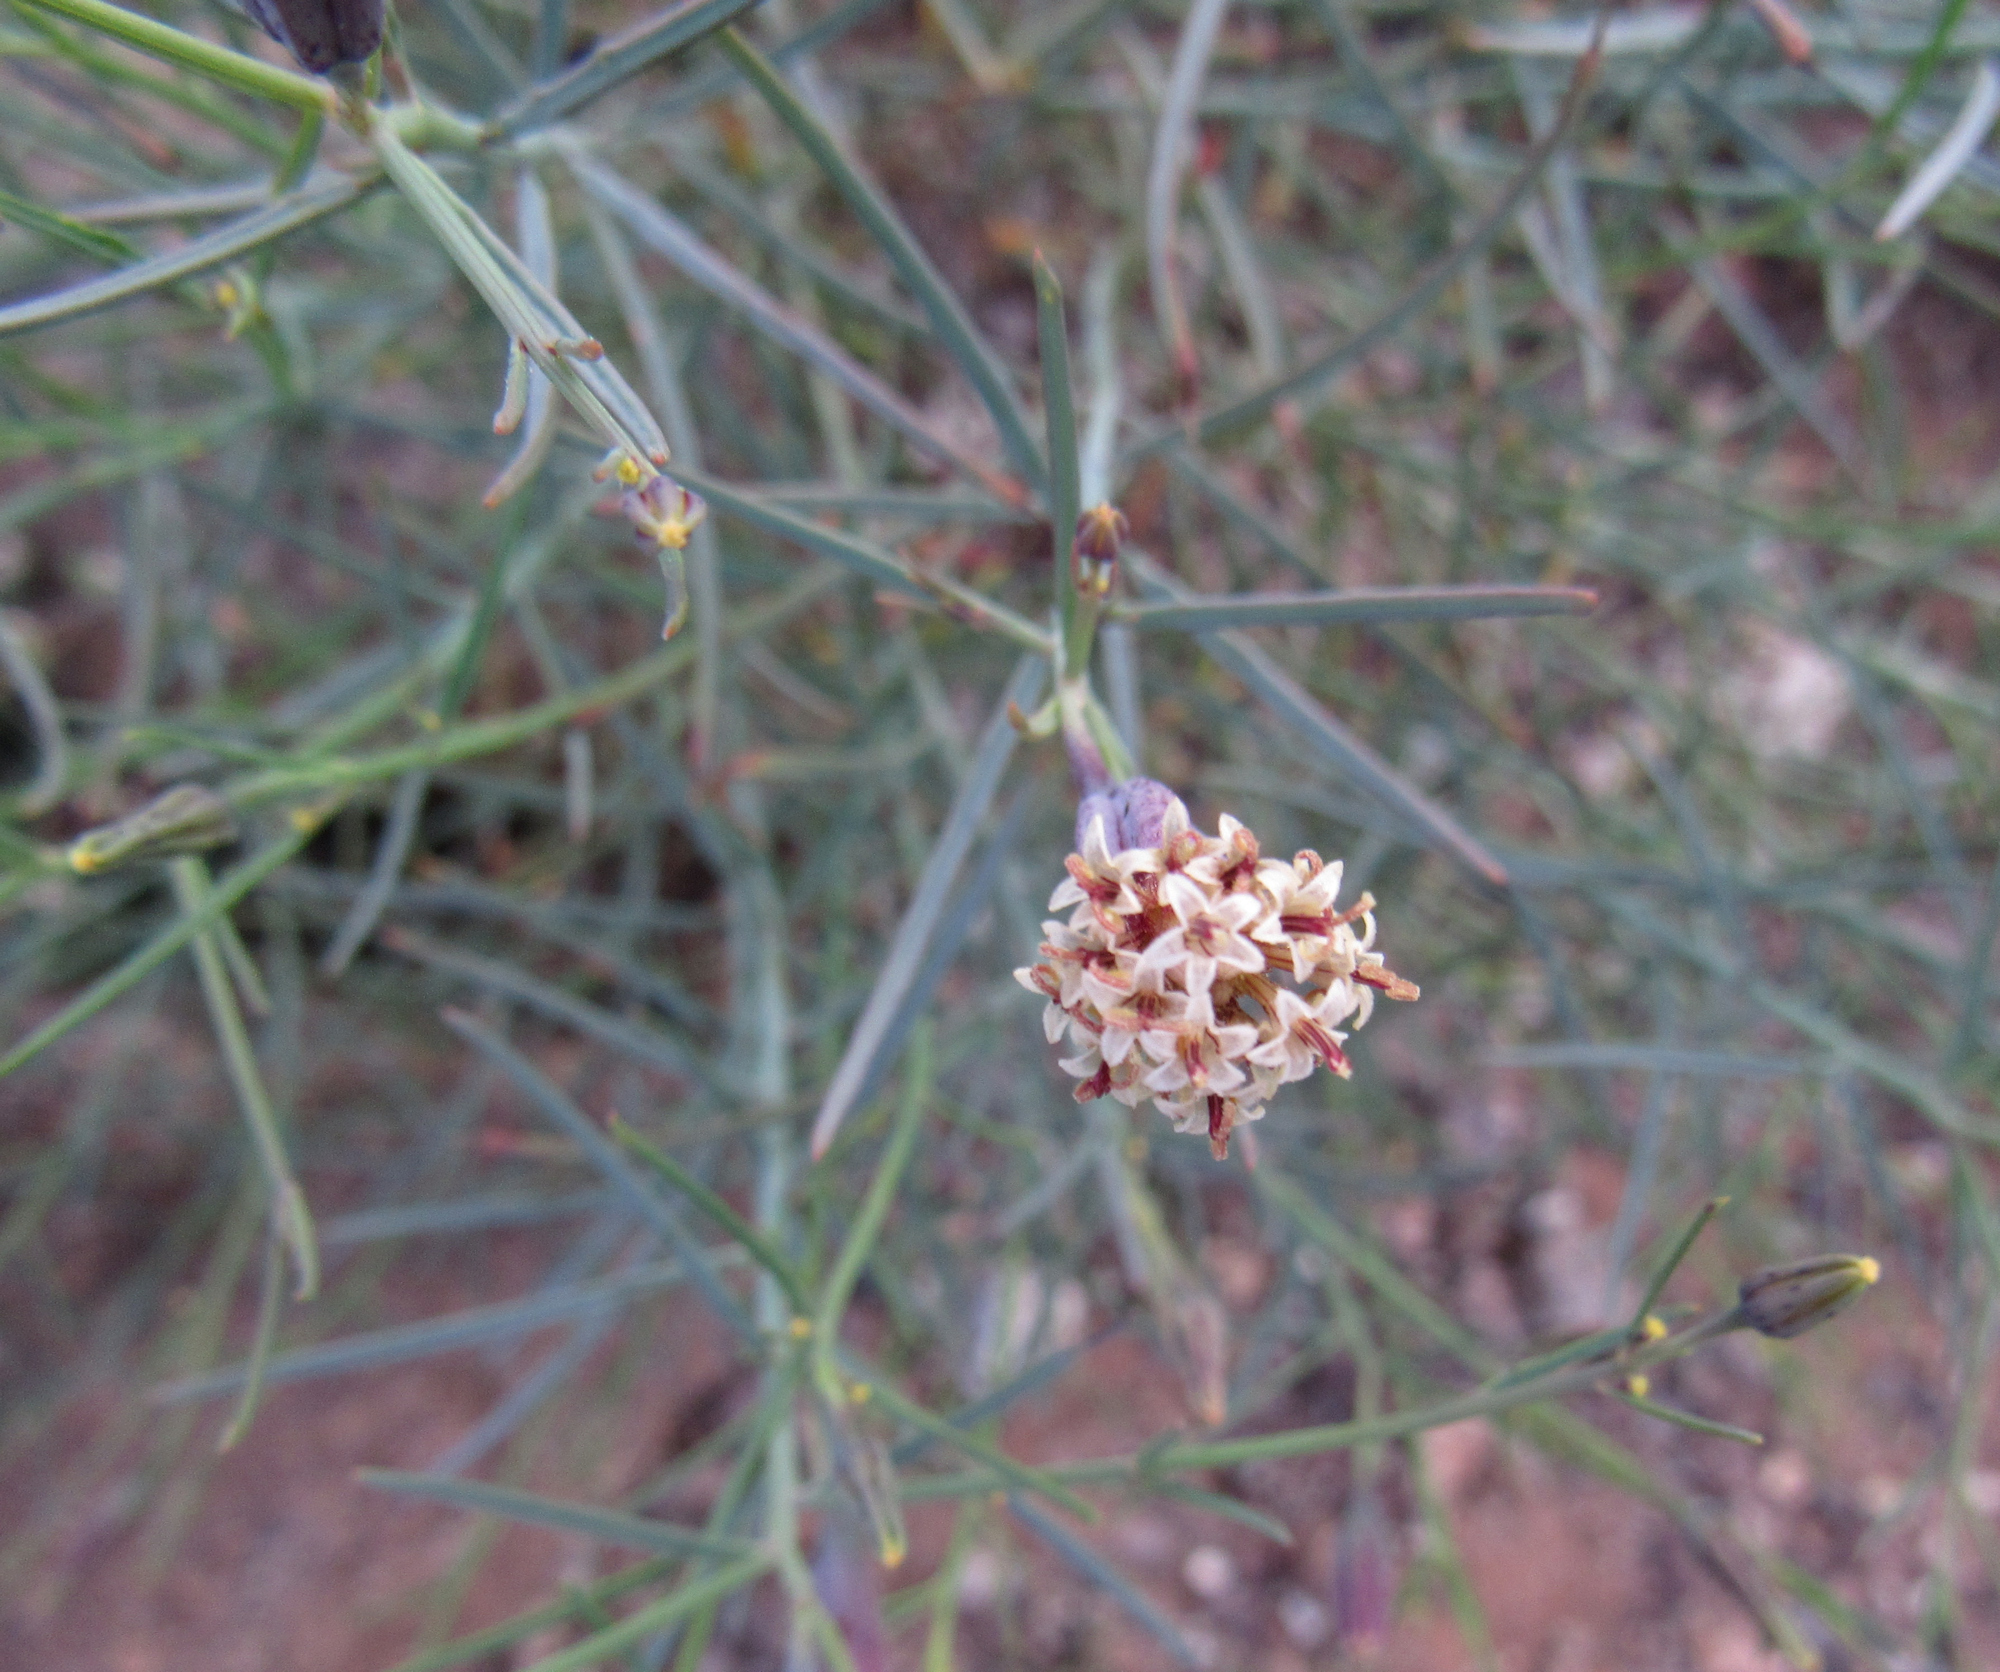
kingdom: Plantae
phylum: Tracheophyta
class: Magnoliopsida
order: Asterales
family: Asteraceae
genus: Porophyllum
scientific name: Porophyllum gracile
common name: Odora
